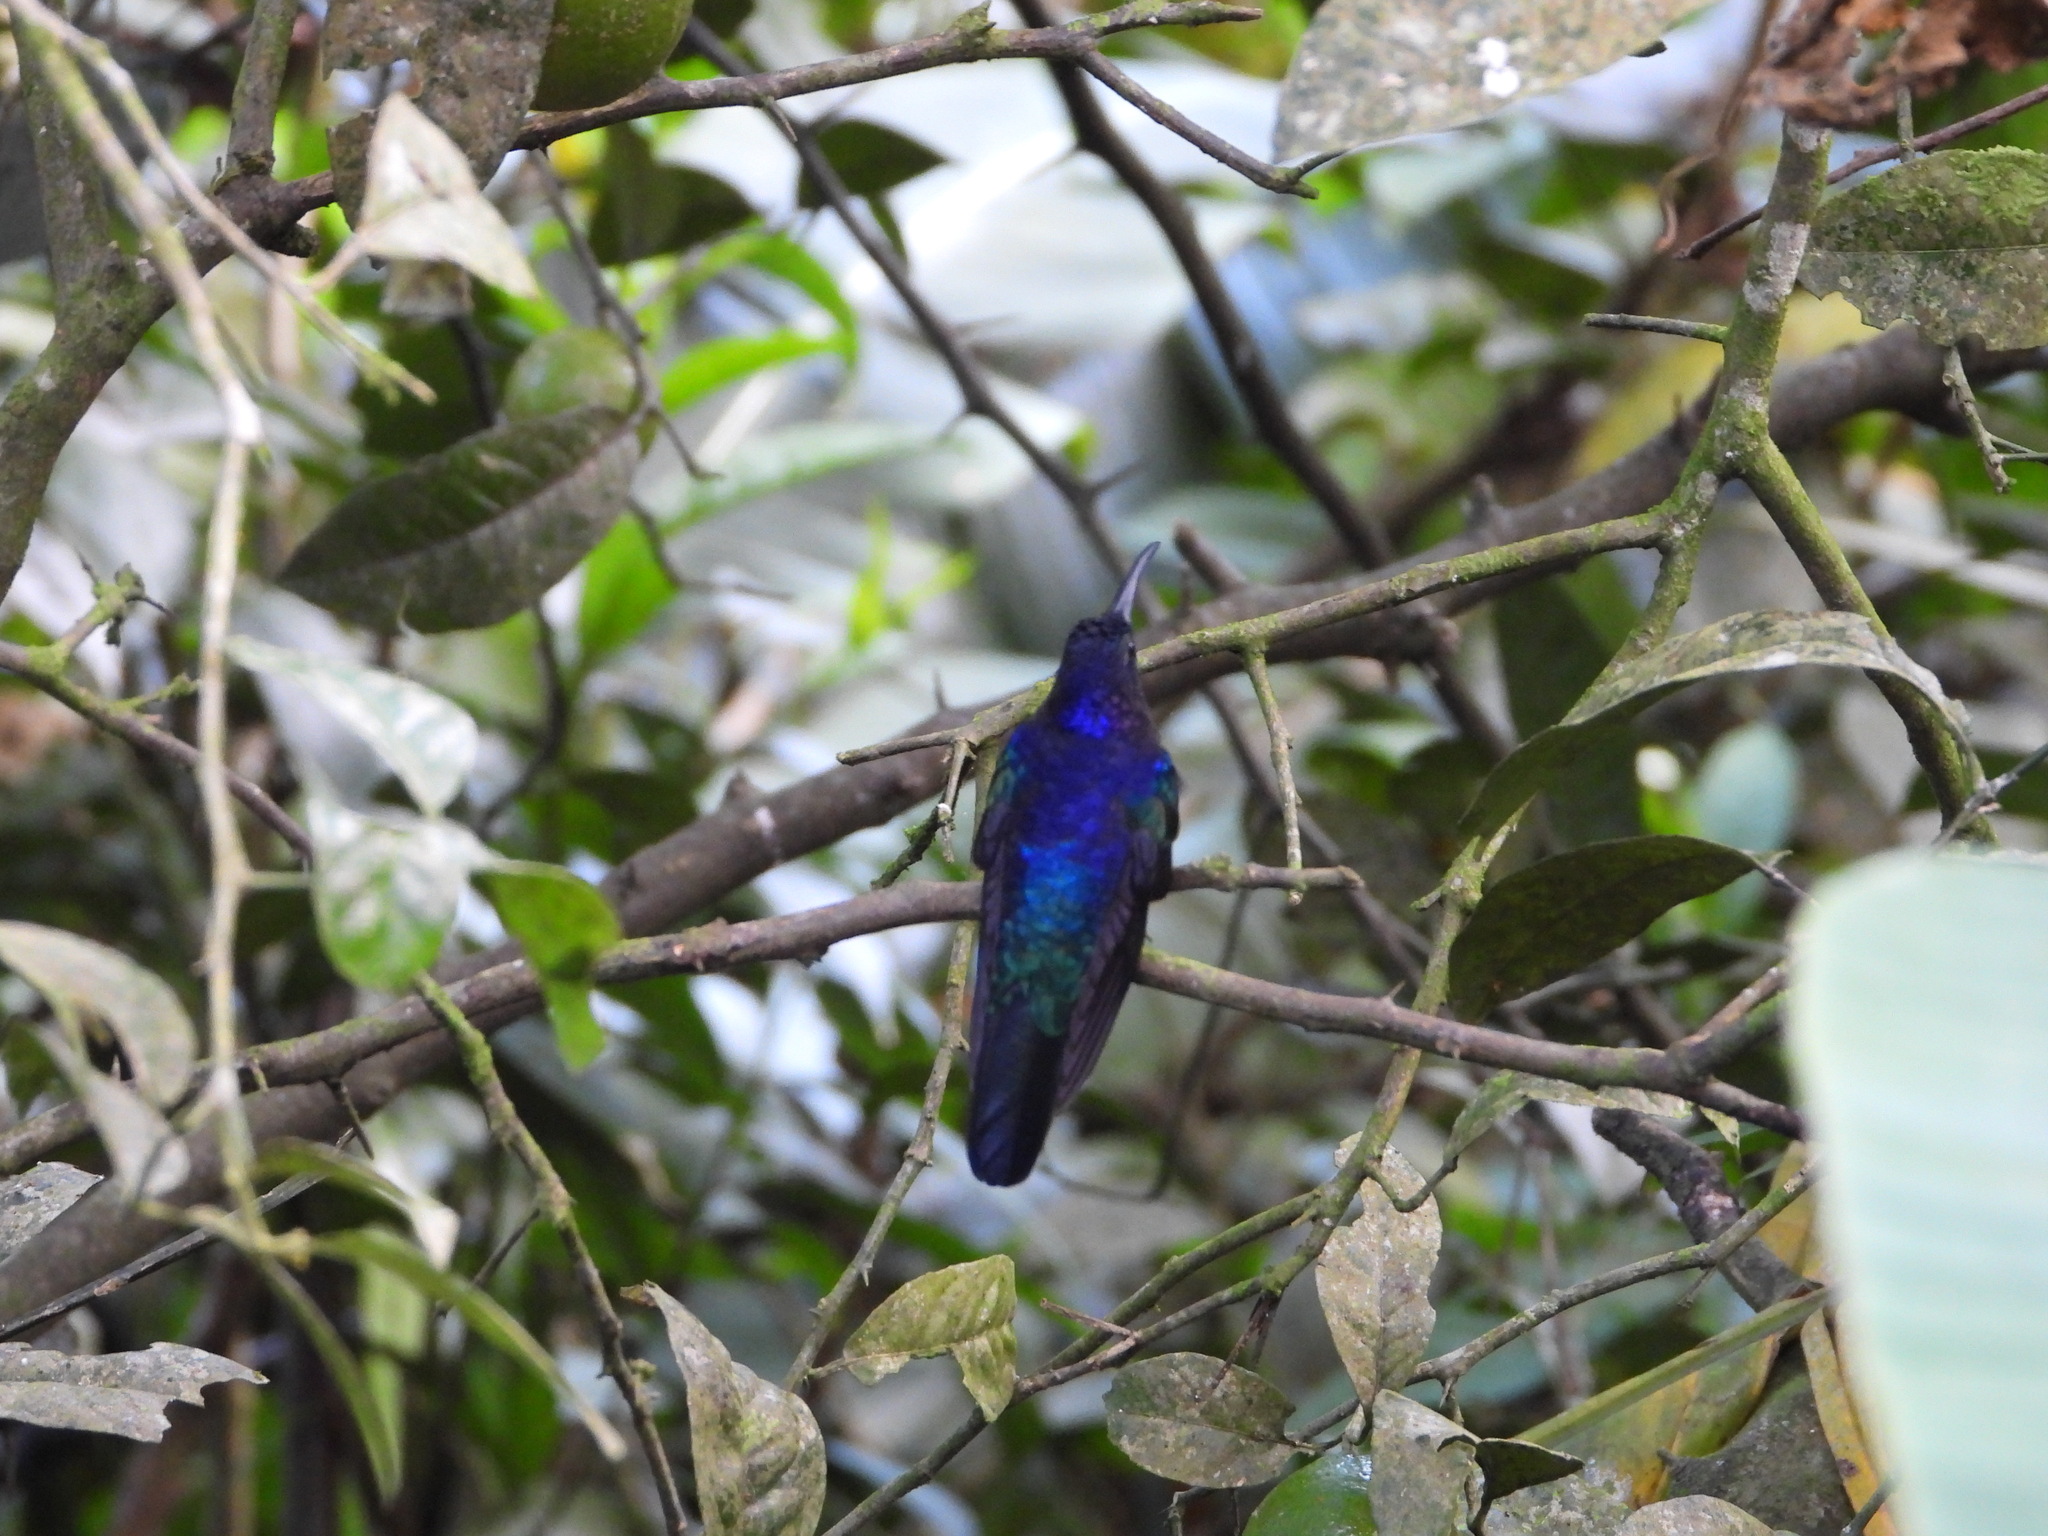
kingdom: Animalia
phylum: Chordata
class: Aves
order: Apodiformes
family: Trochilidae
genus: Campylopterus
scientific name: Campylopterus hemileucurus
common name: Violet sabrewing
